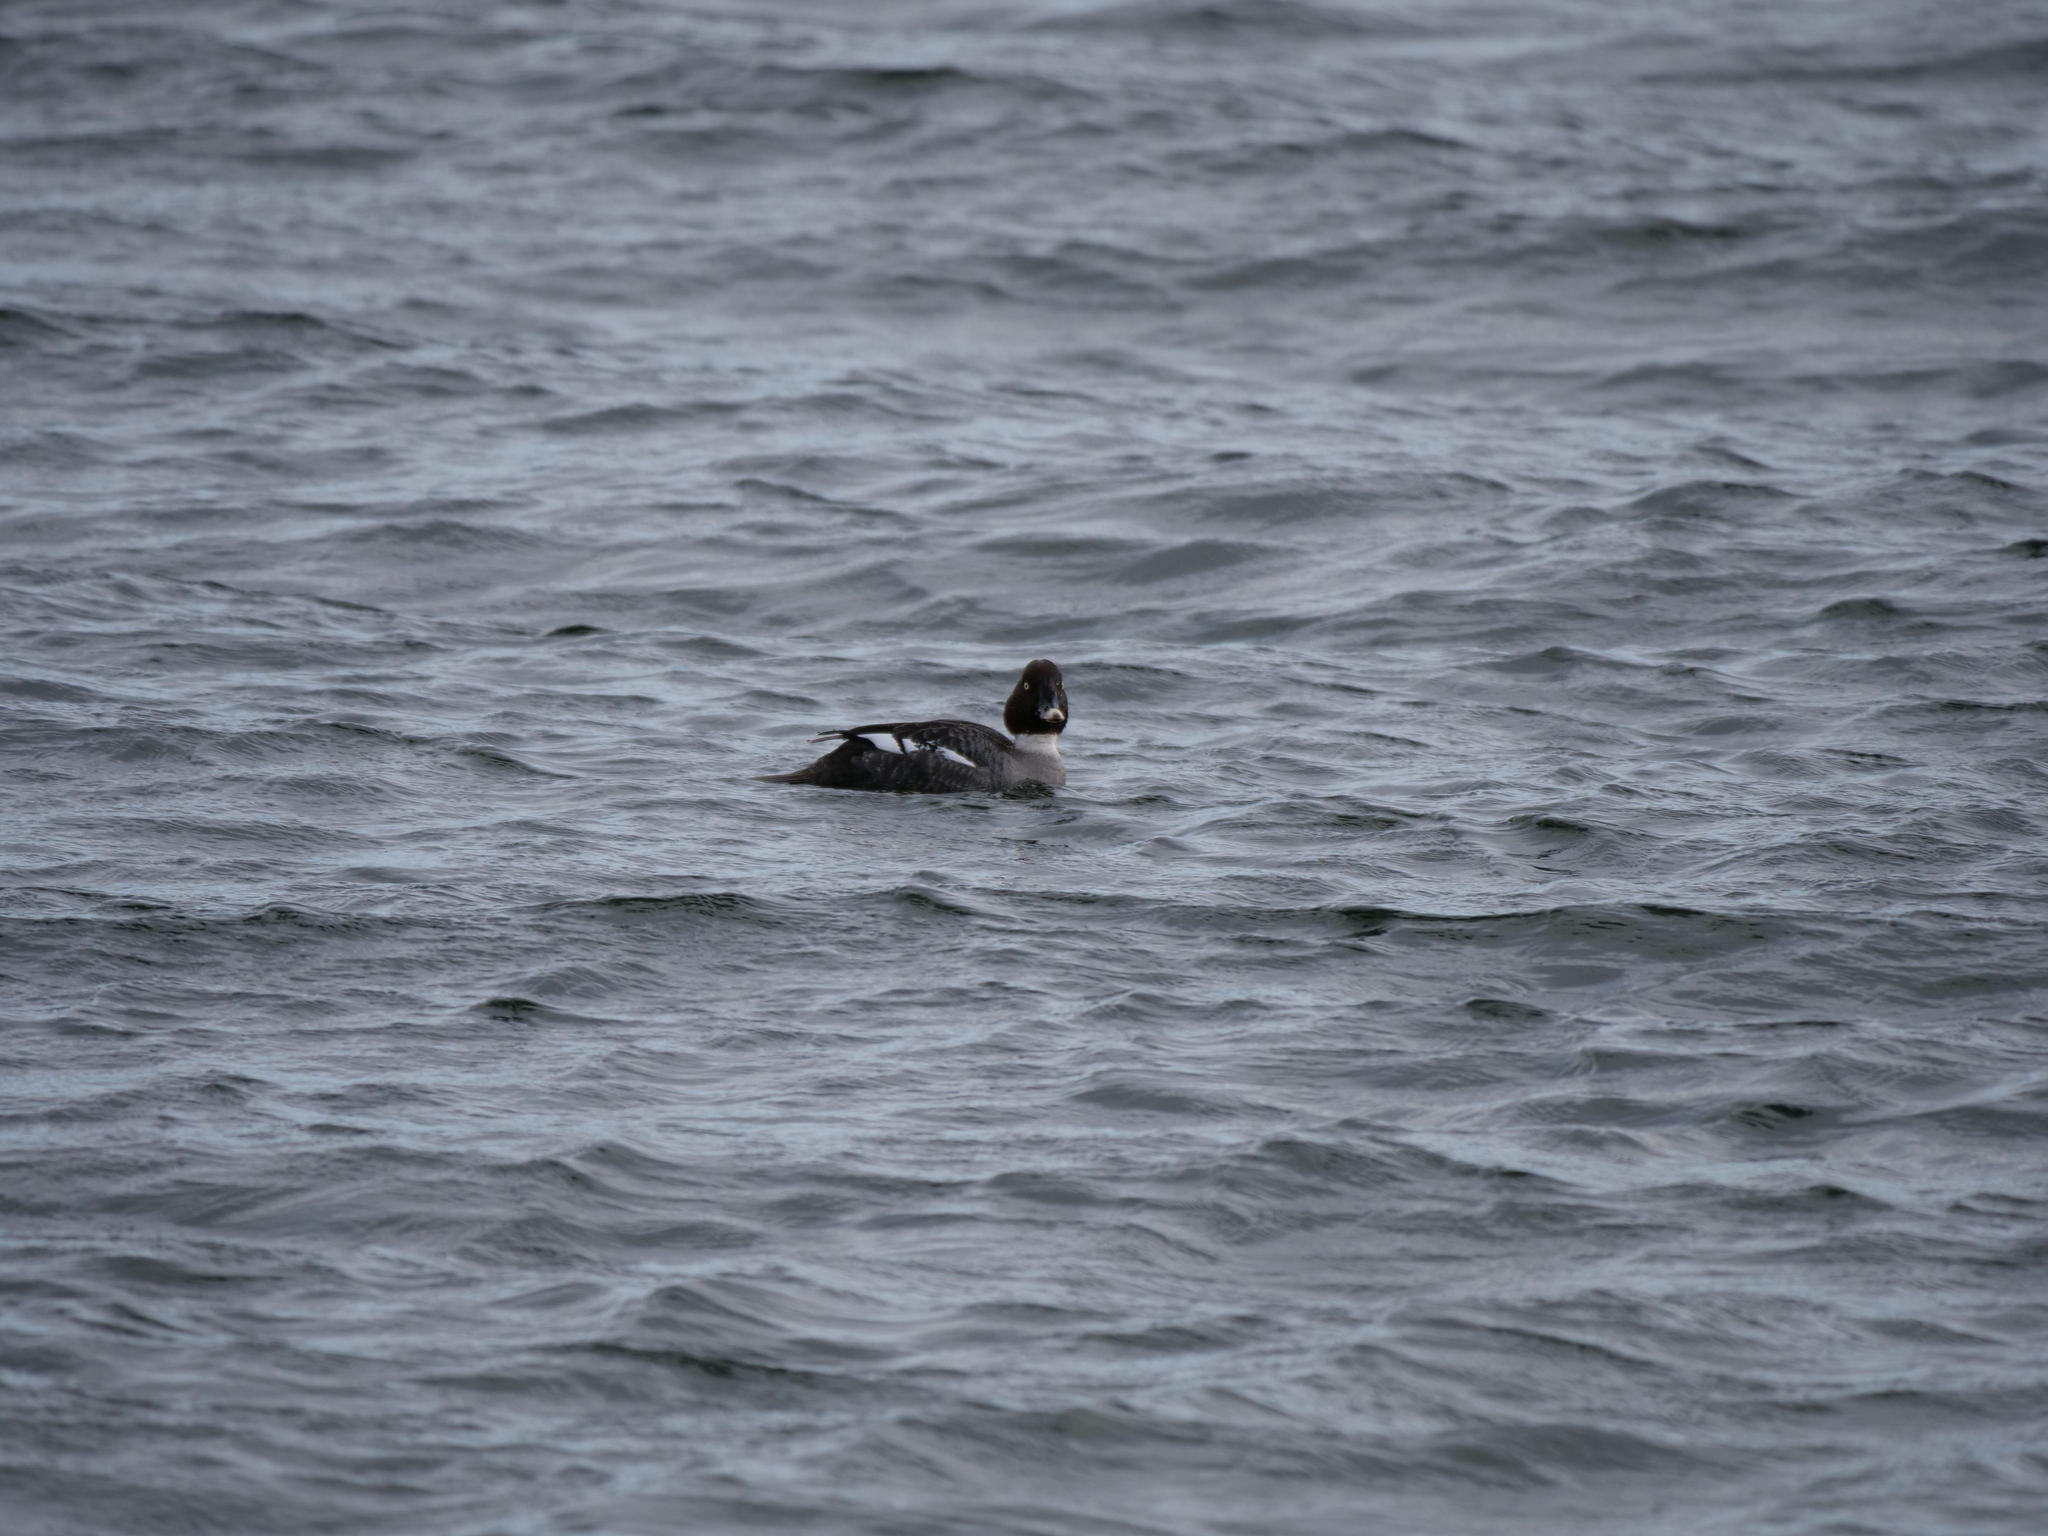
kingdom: Animalia
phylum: Chordata
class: Aves
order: Anseriformes
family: Anatidae
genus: Bucephala
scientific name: Bucephala clangula
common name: Common goldeneye
